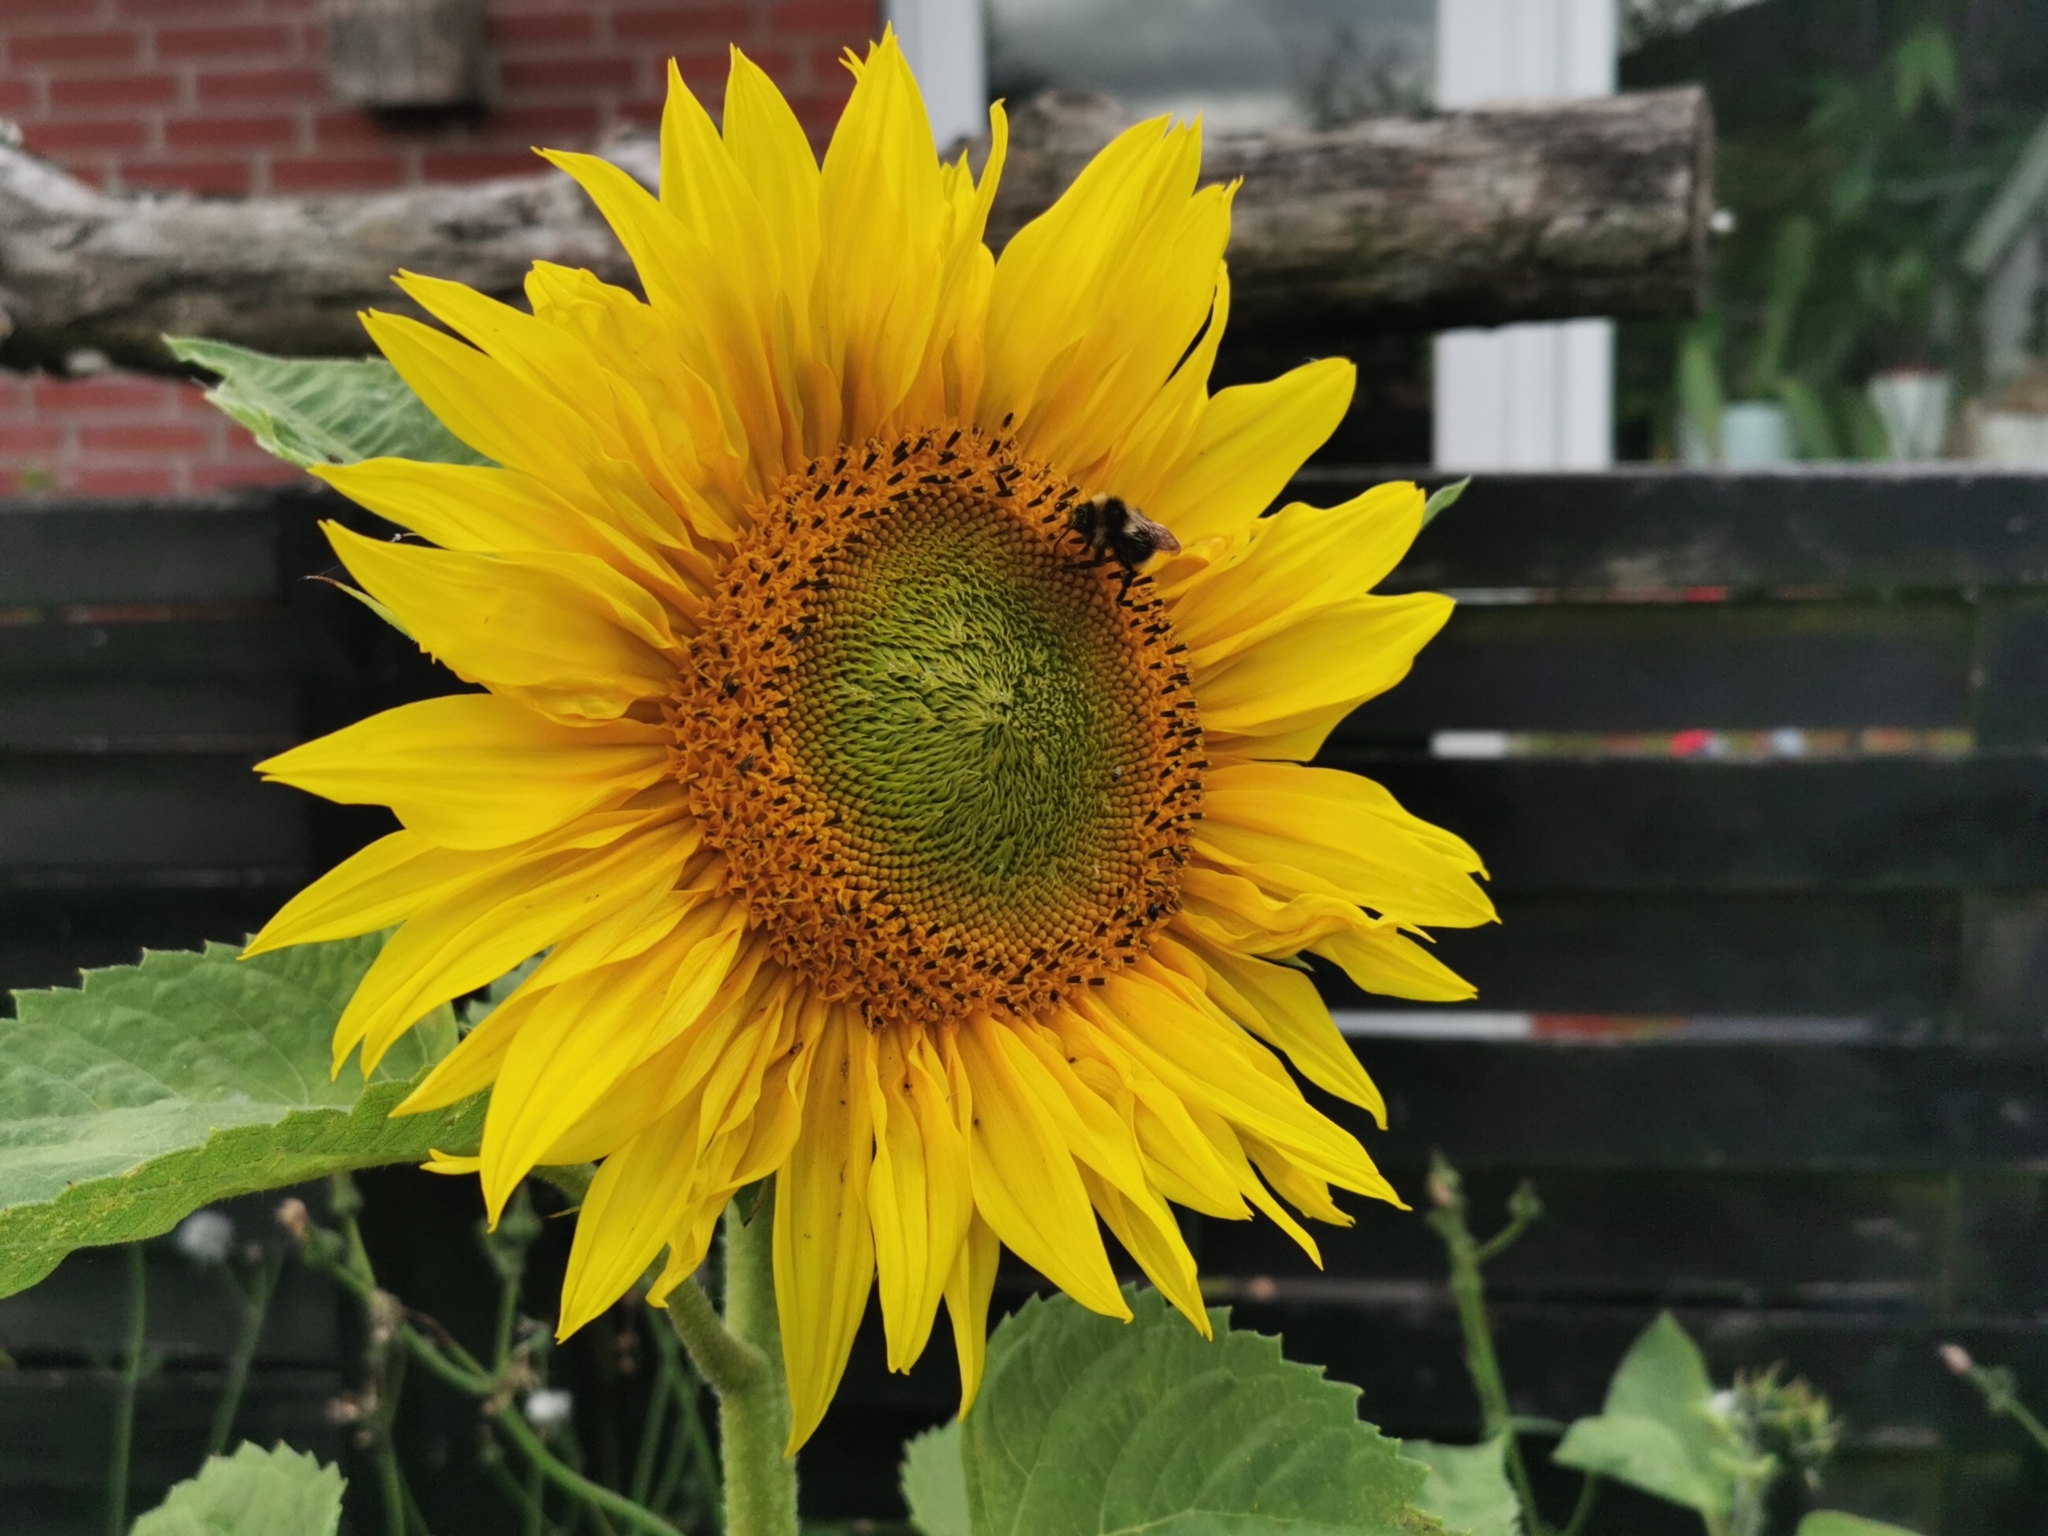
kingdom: Plantae
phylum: Tracheophyta
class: Magnoliopsida
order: Asterales
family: Asteraceae
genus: Helianthus
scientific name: Helianthus annuus
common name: Sunflower
